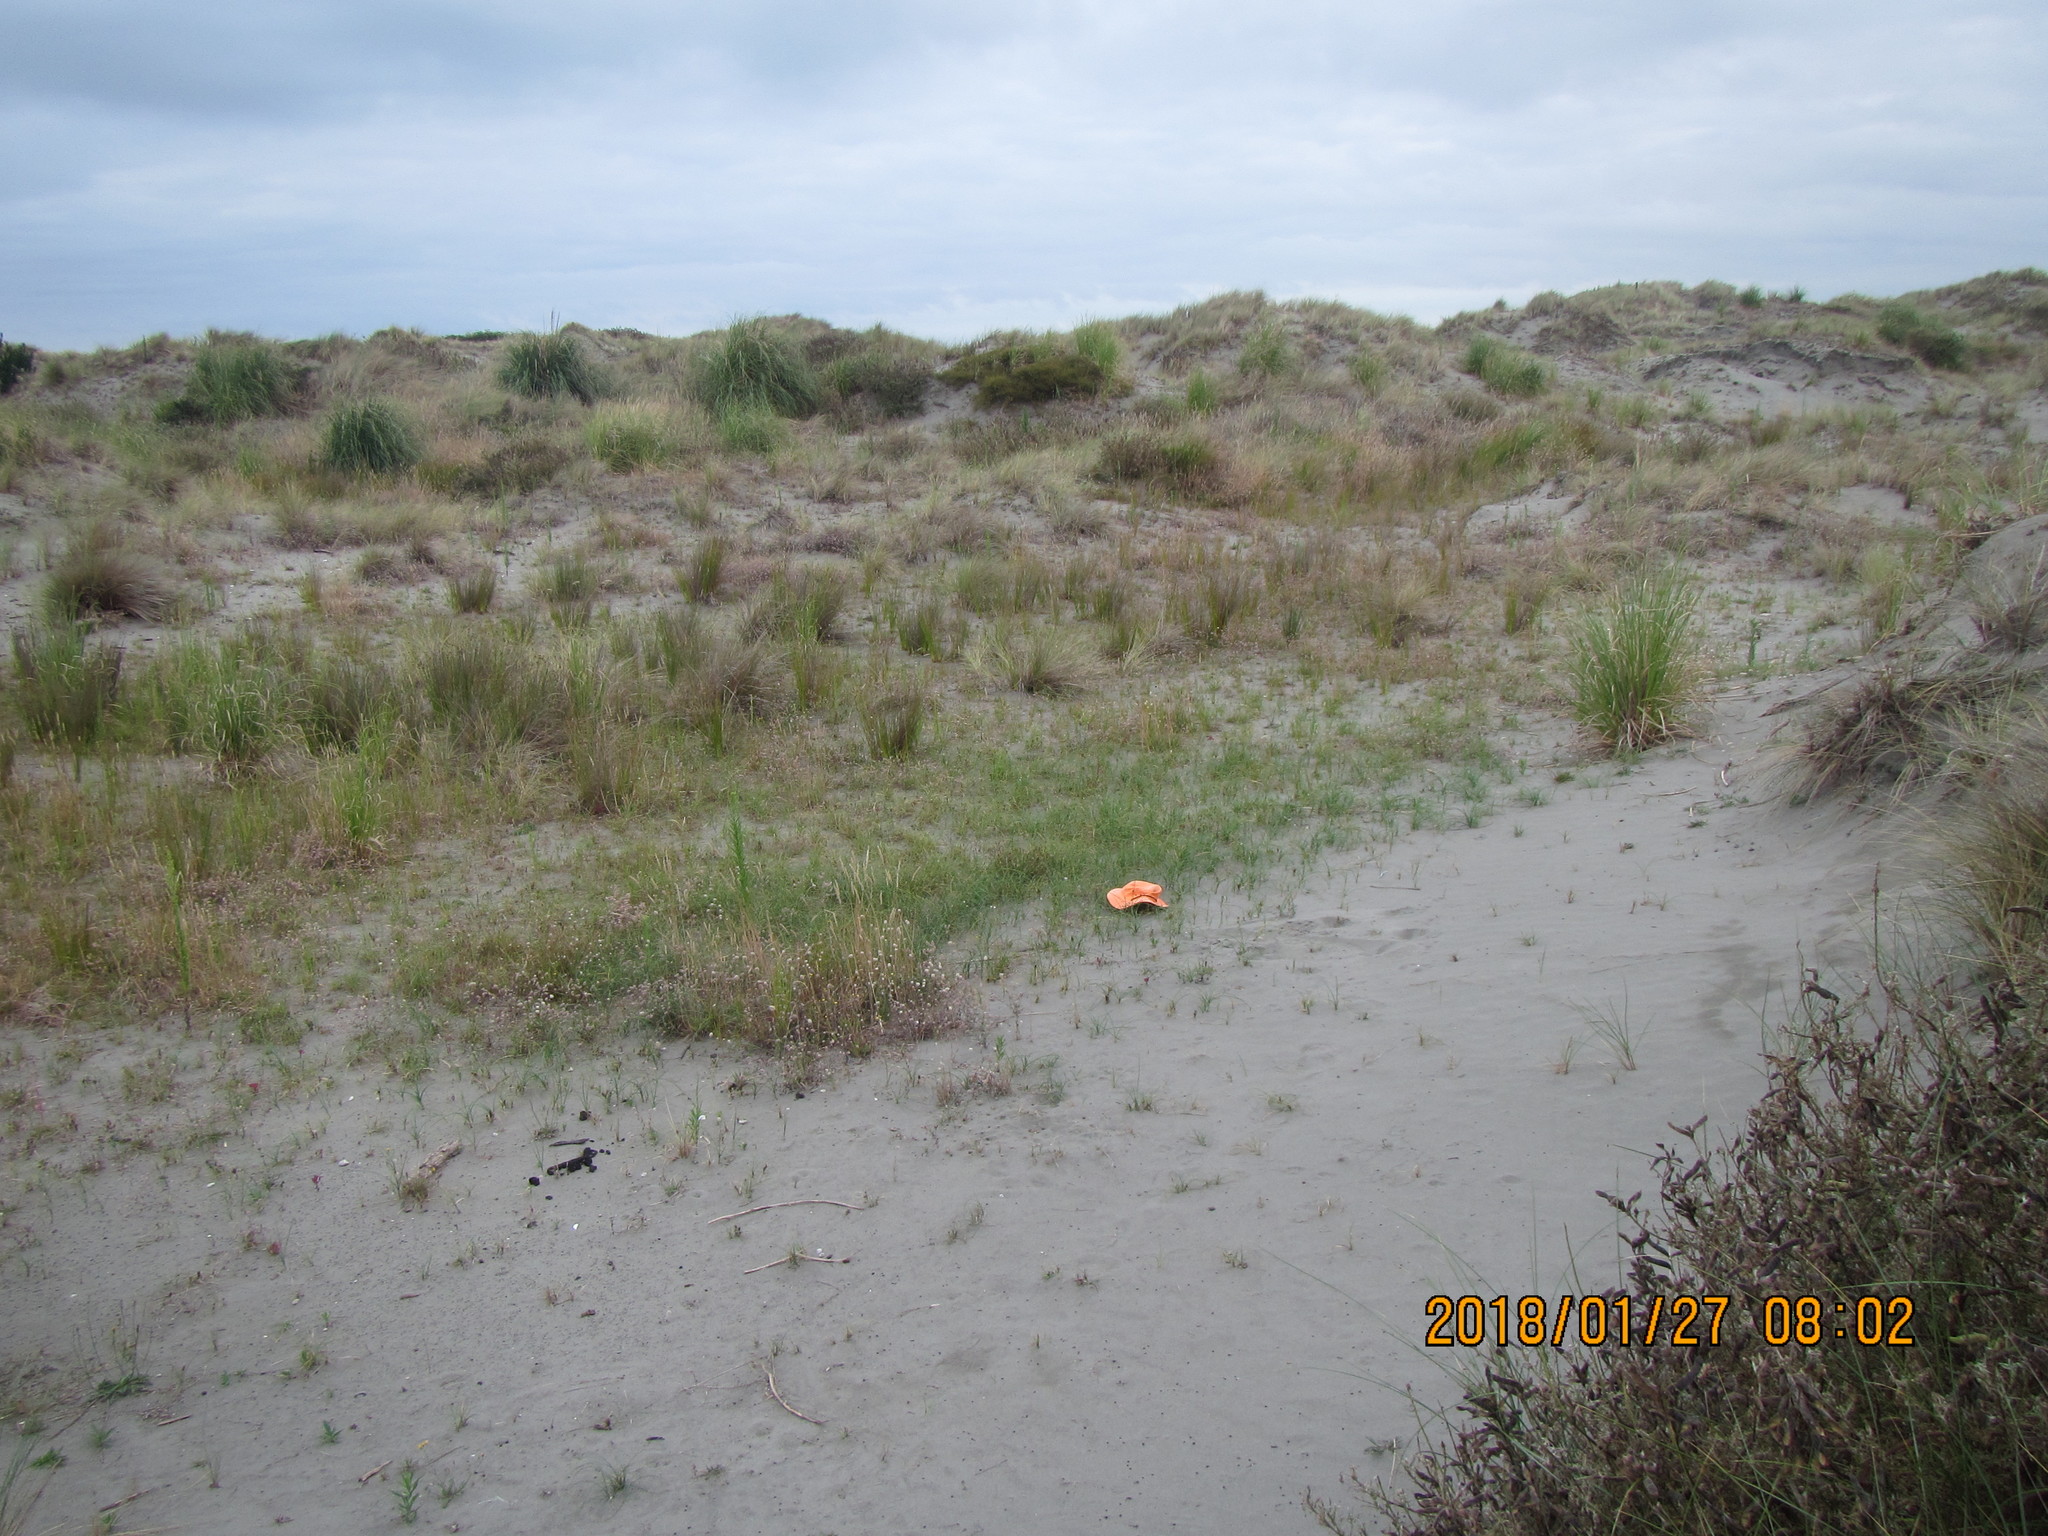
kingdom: Plantae
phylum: Tracheophyta
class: Liliopsida
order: Poales
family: Cyperaceae
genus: Carex
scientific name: Carex pumila
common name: Dwarf sedge
